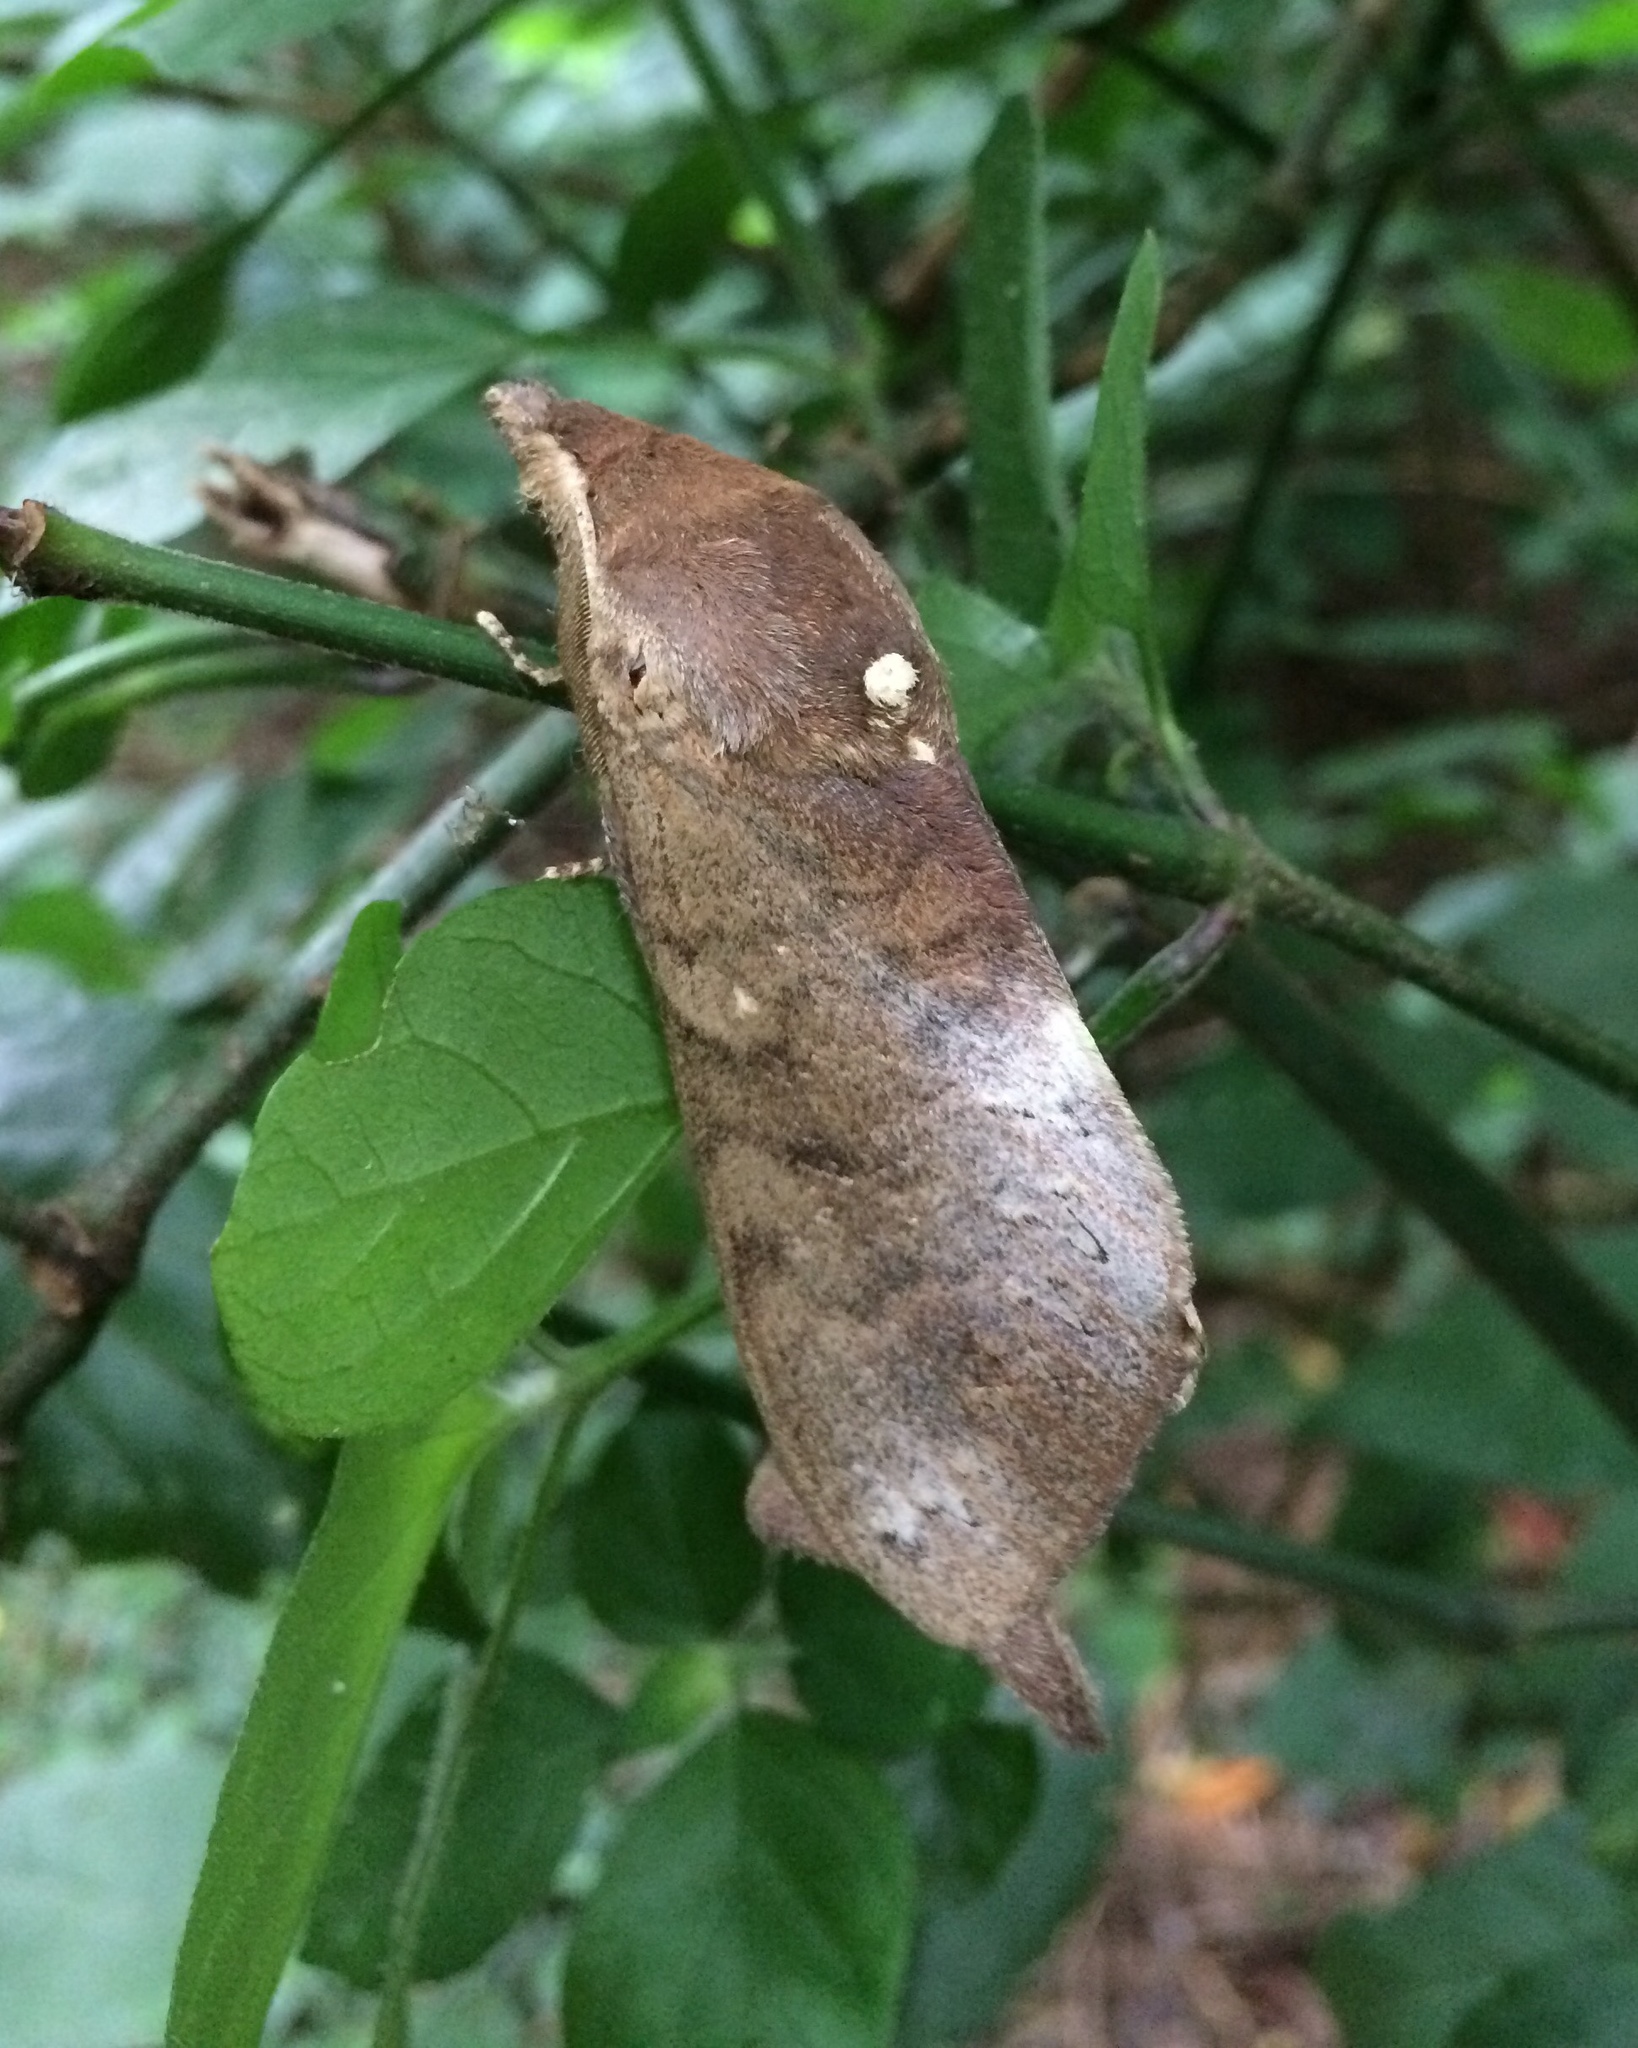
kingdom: Animalia
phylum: Arthropoda
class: Insecta
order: Lepidoptera
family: Lasiocampidae
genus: Catalebeda
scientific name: Catalebeda cuneilinea
